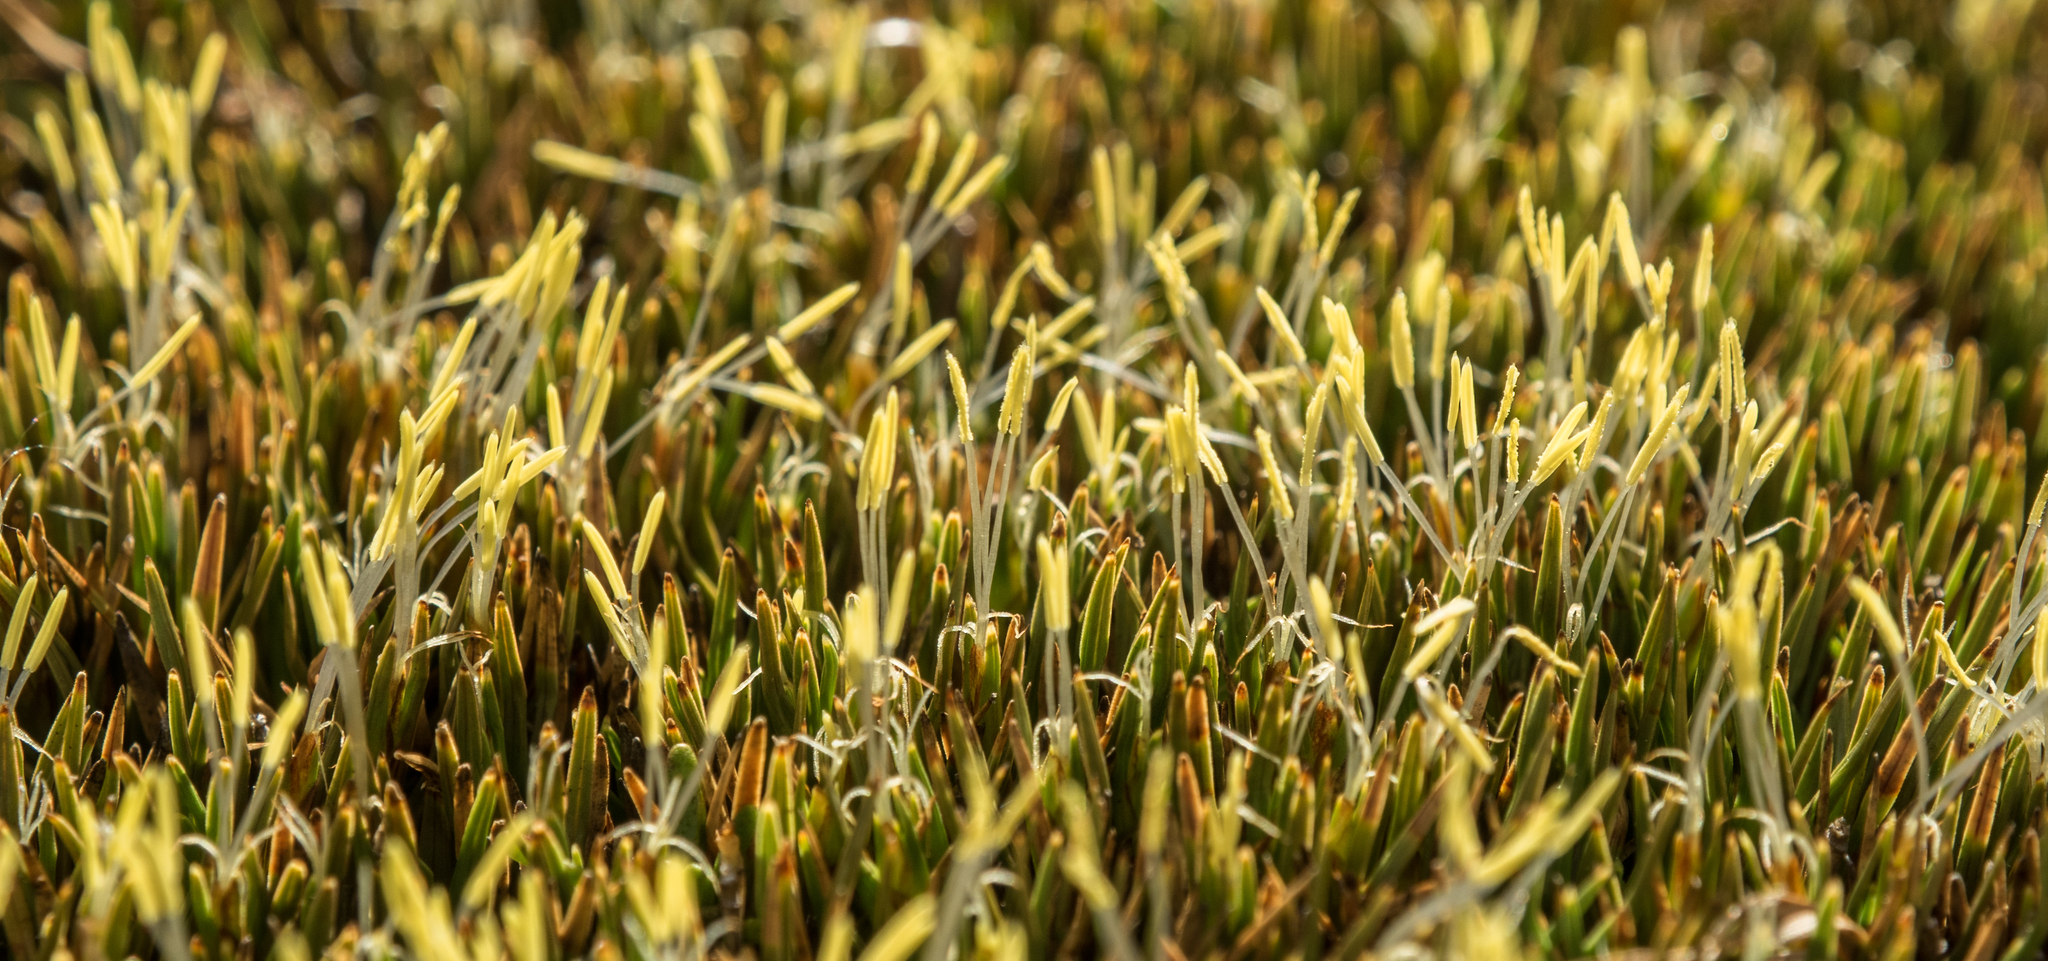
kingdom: Plantae
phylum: Tracheophyta
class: Liliopsida
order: Poales
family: Cyperaceae
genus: Oreobolus
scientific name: Oreobolus pectinatus
